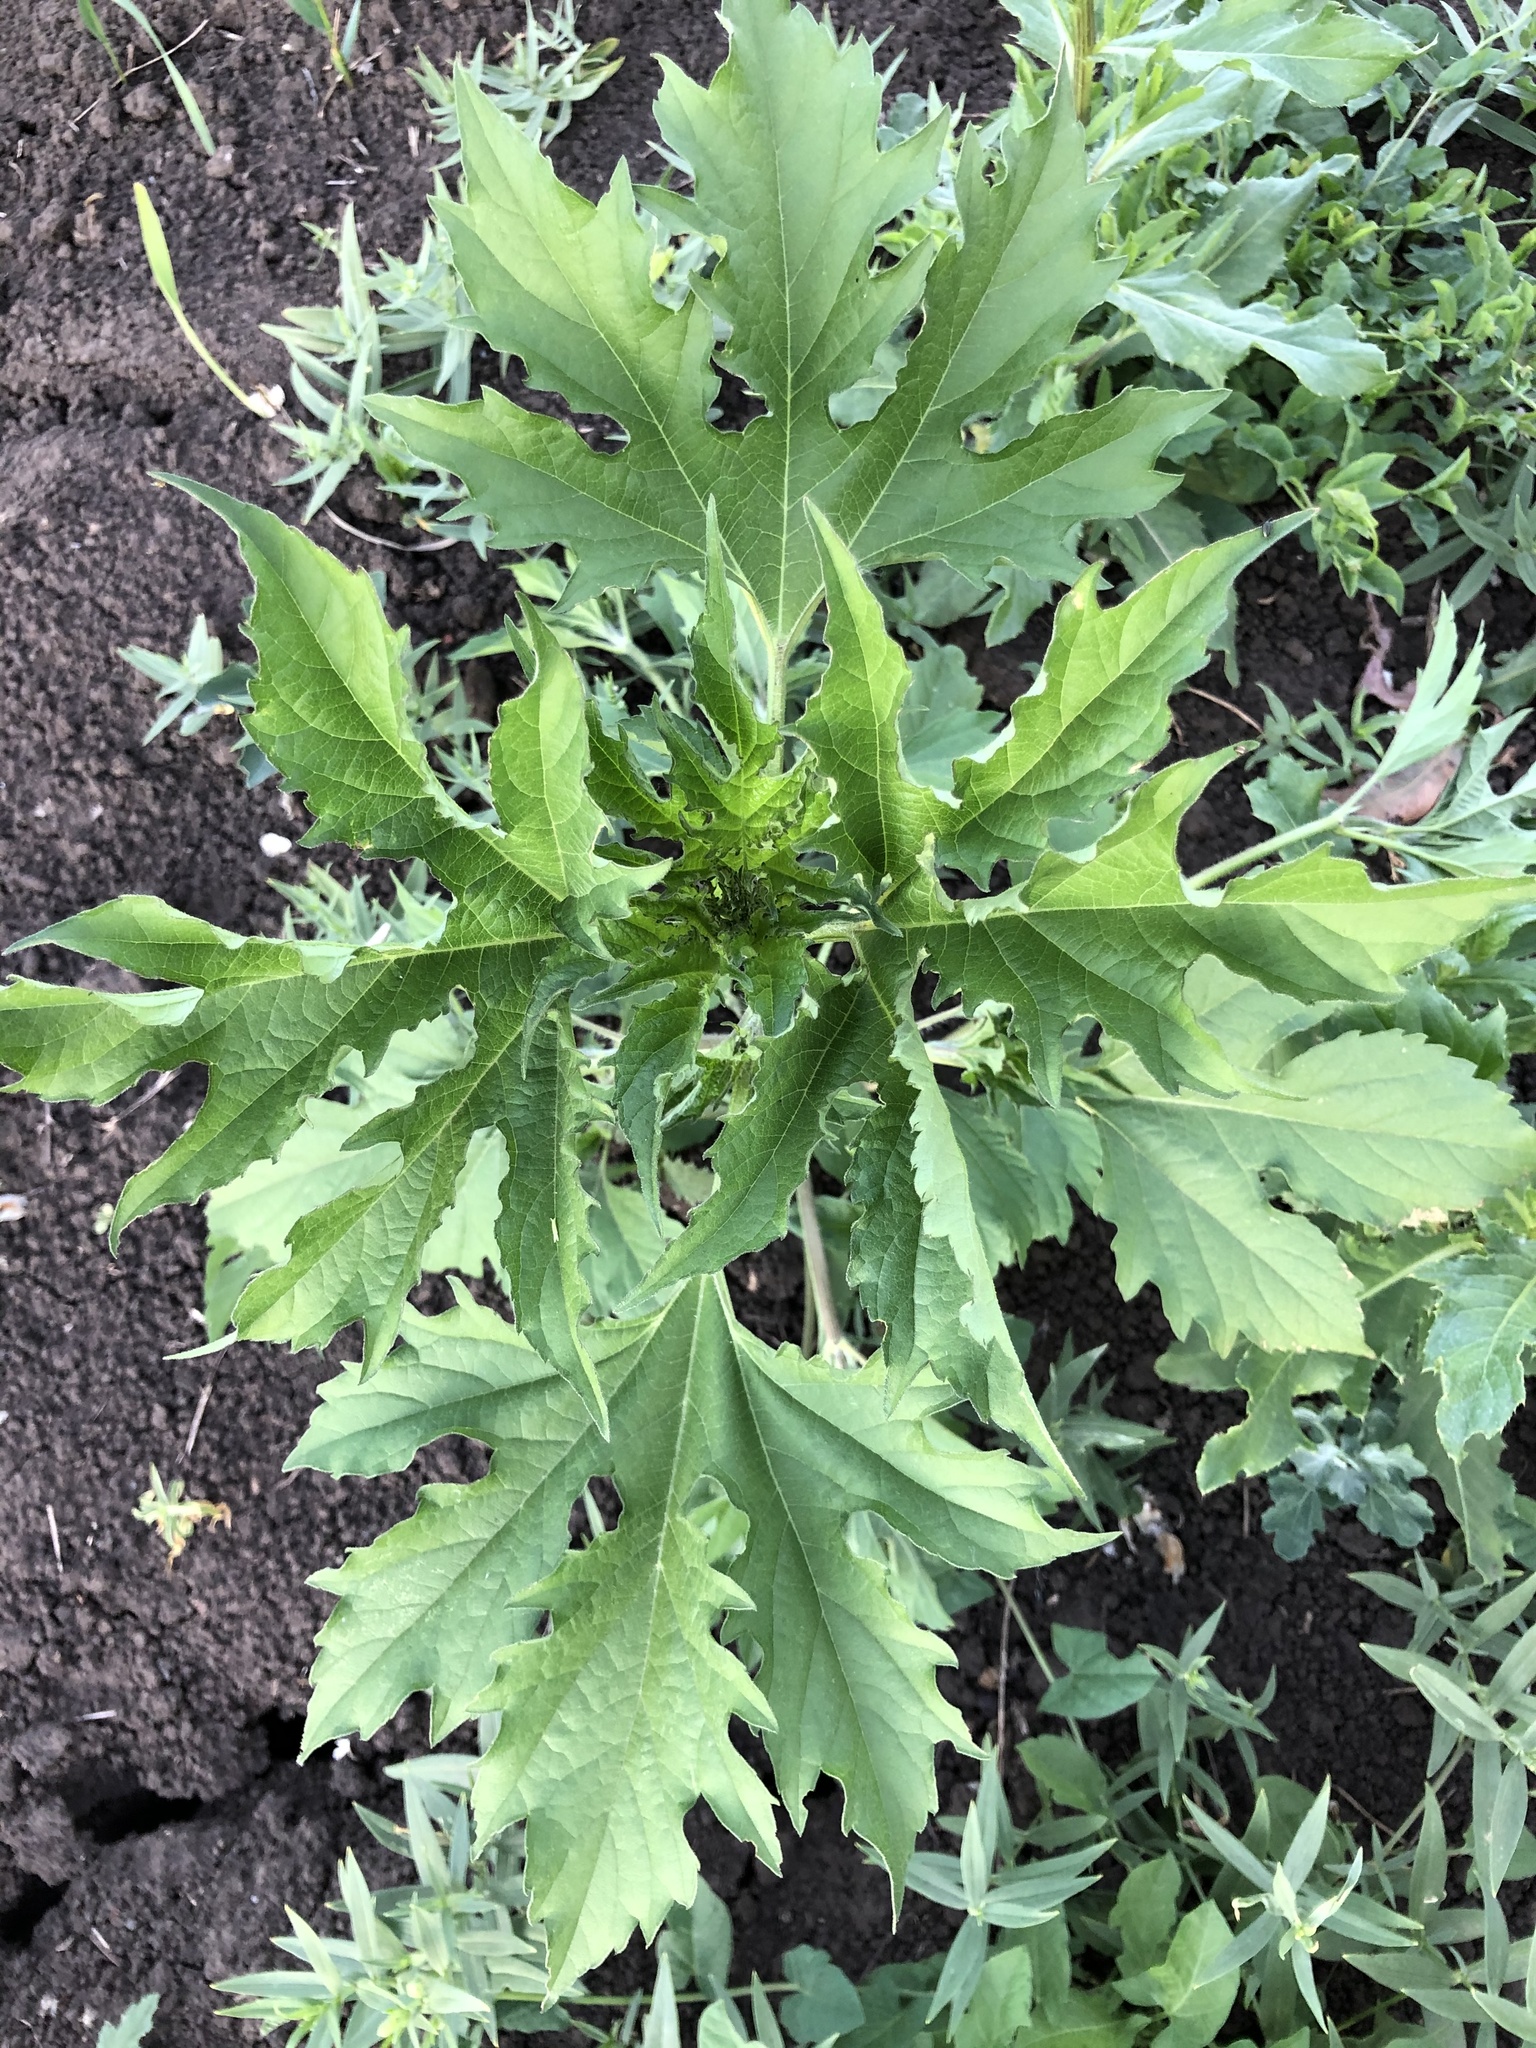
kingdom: Plantae
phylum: Tracheophyta
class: Magnoliopsida
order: Asterales
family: Asteraceae
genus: Ambrosia
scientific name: Ambrosia trifida
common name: Giant ragweed
